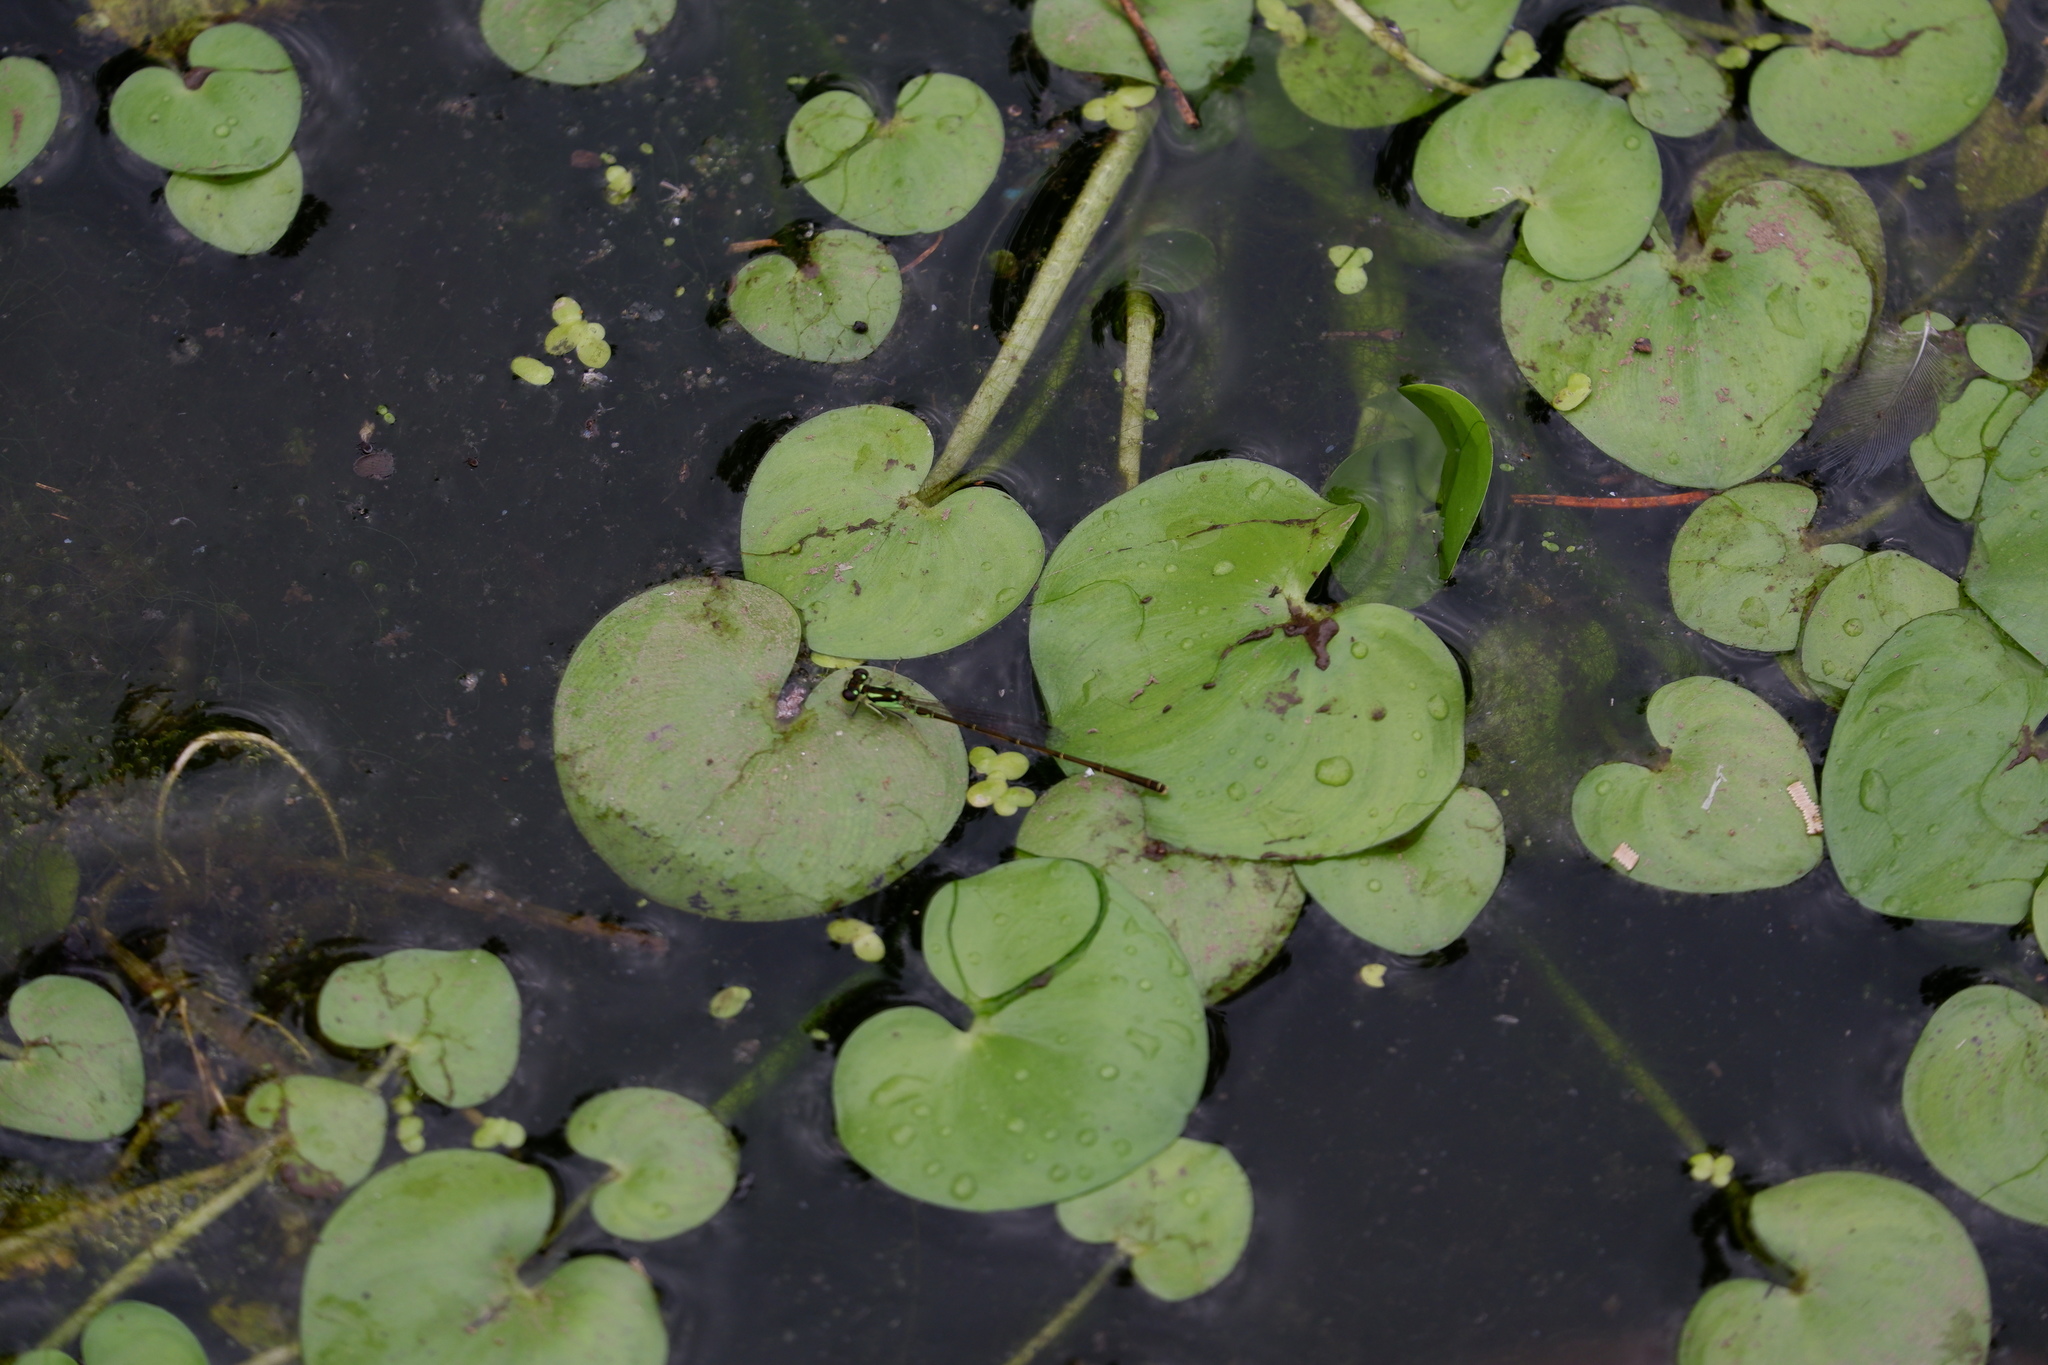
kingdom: Plantae
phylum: Tracheophyta
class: Liliopsida
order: Commelinales
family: Pontederiaceae
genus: Heteranthera
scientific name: Heteranthera reniformis
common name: Kidneyleaf mudplantain
